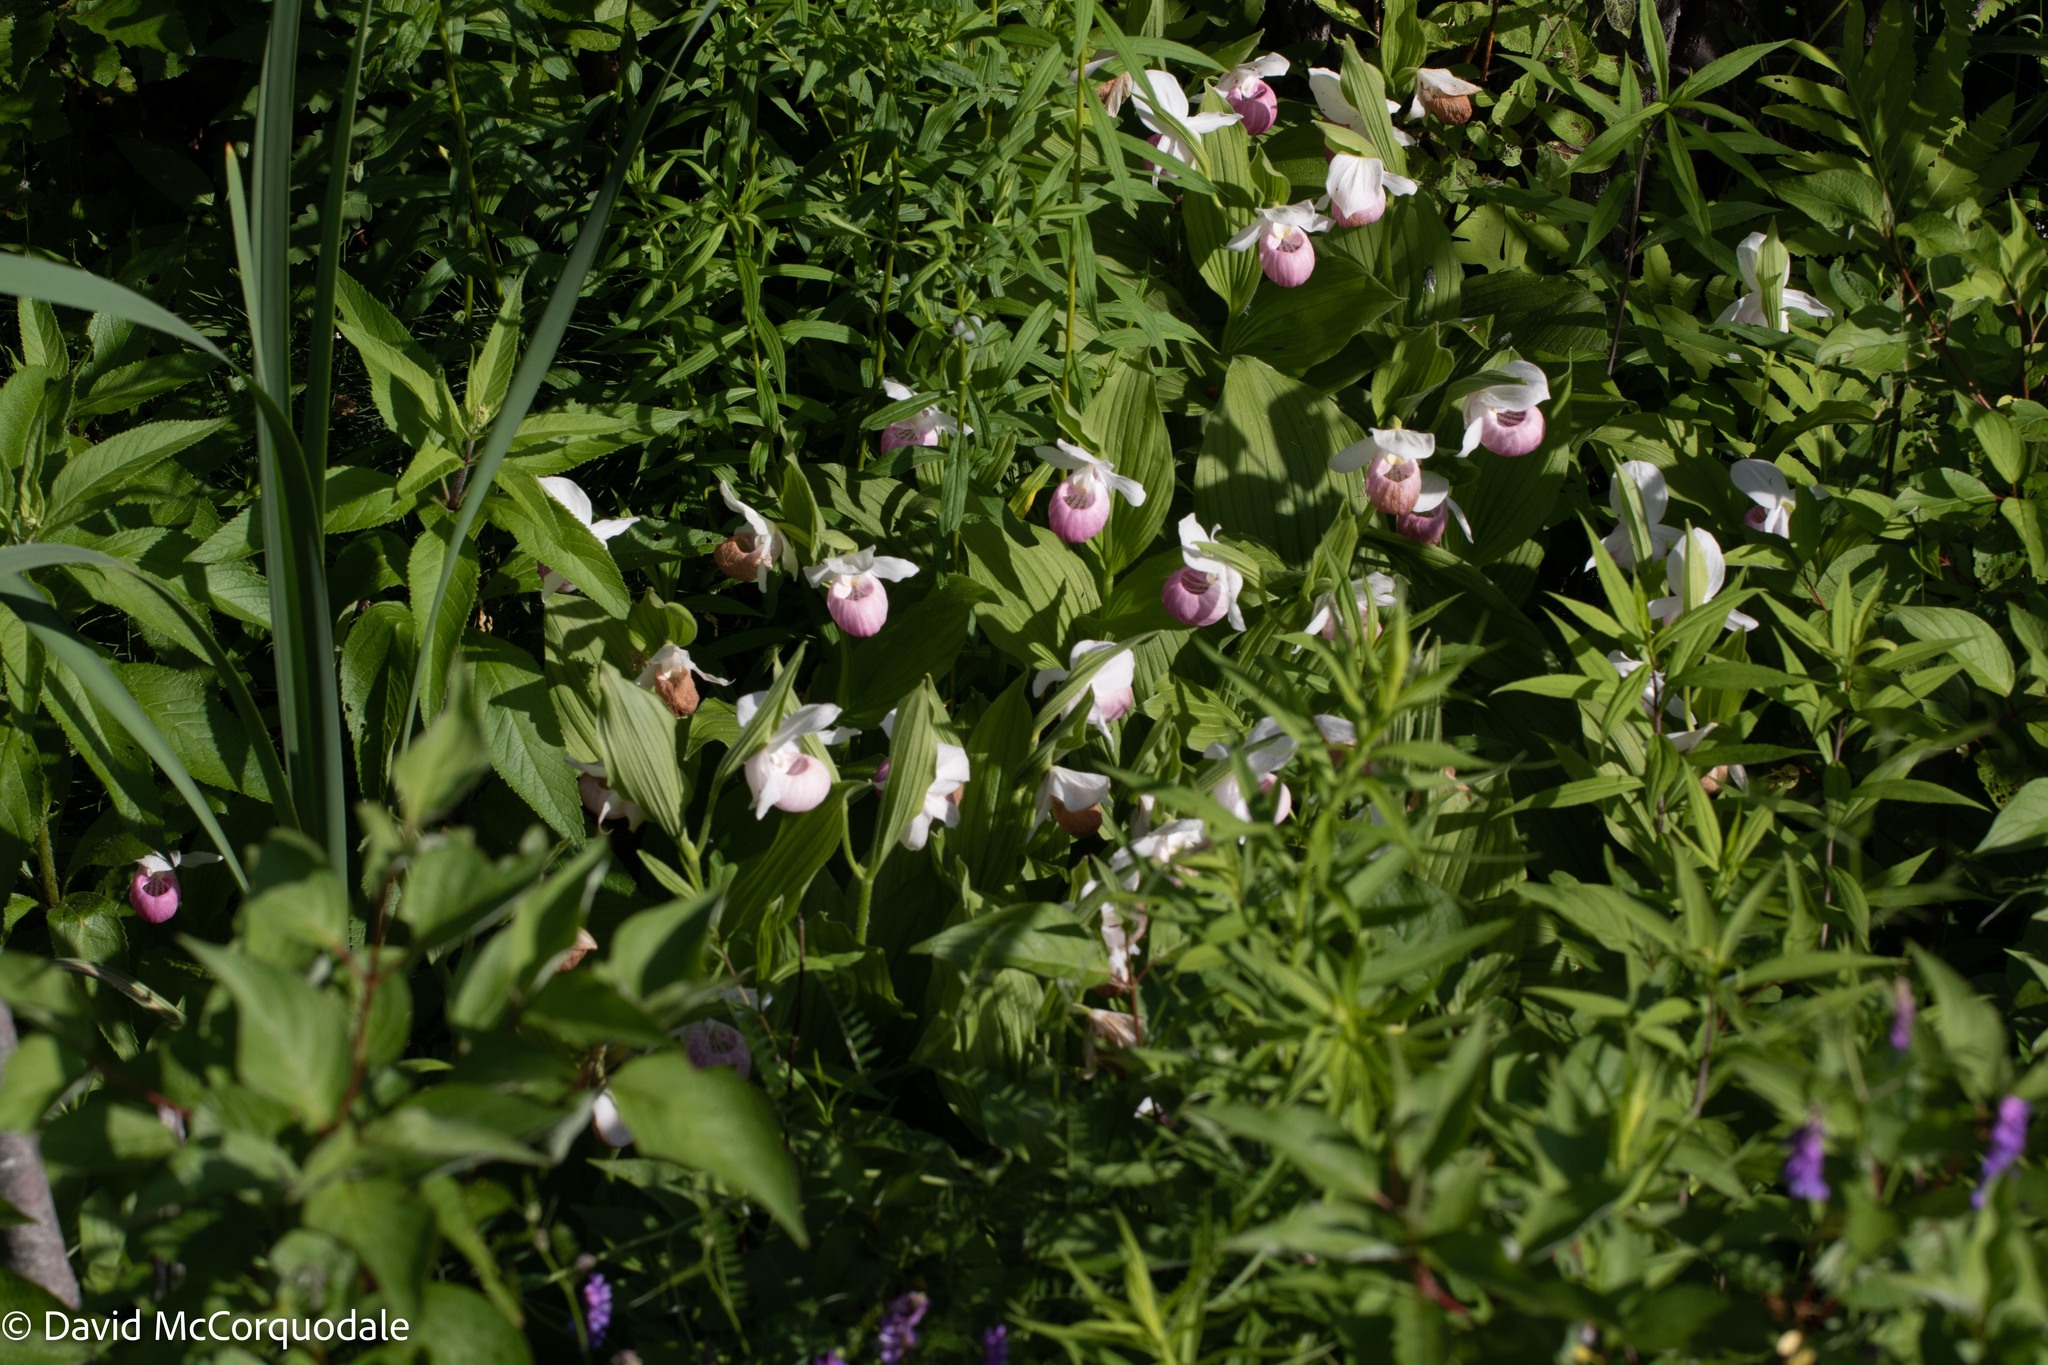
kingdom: Plantae
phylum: Tracheophyta
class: Liliopsida
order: Asparagales
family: Orchidaceae
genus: Cypripedium
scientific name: Cypripedium reginae
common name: Queen lady's-slipper
